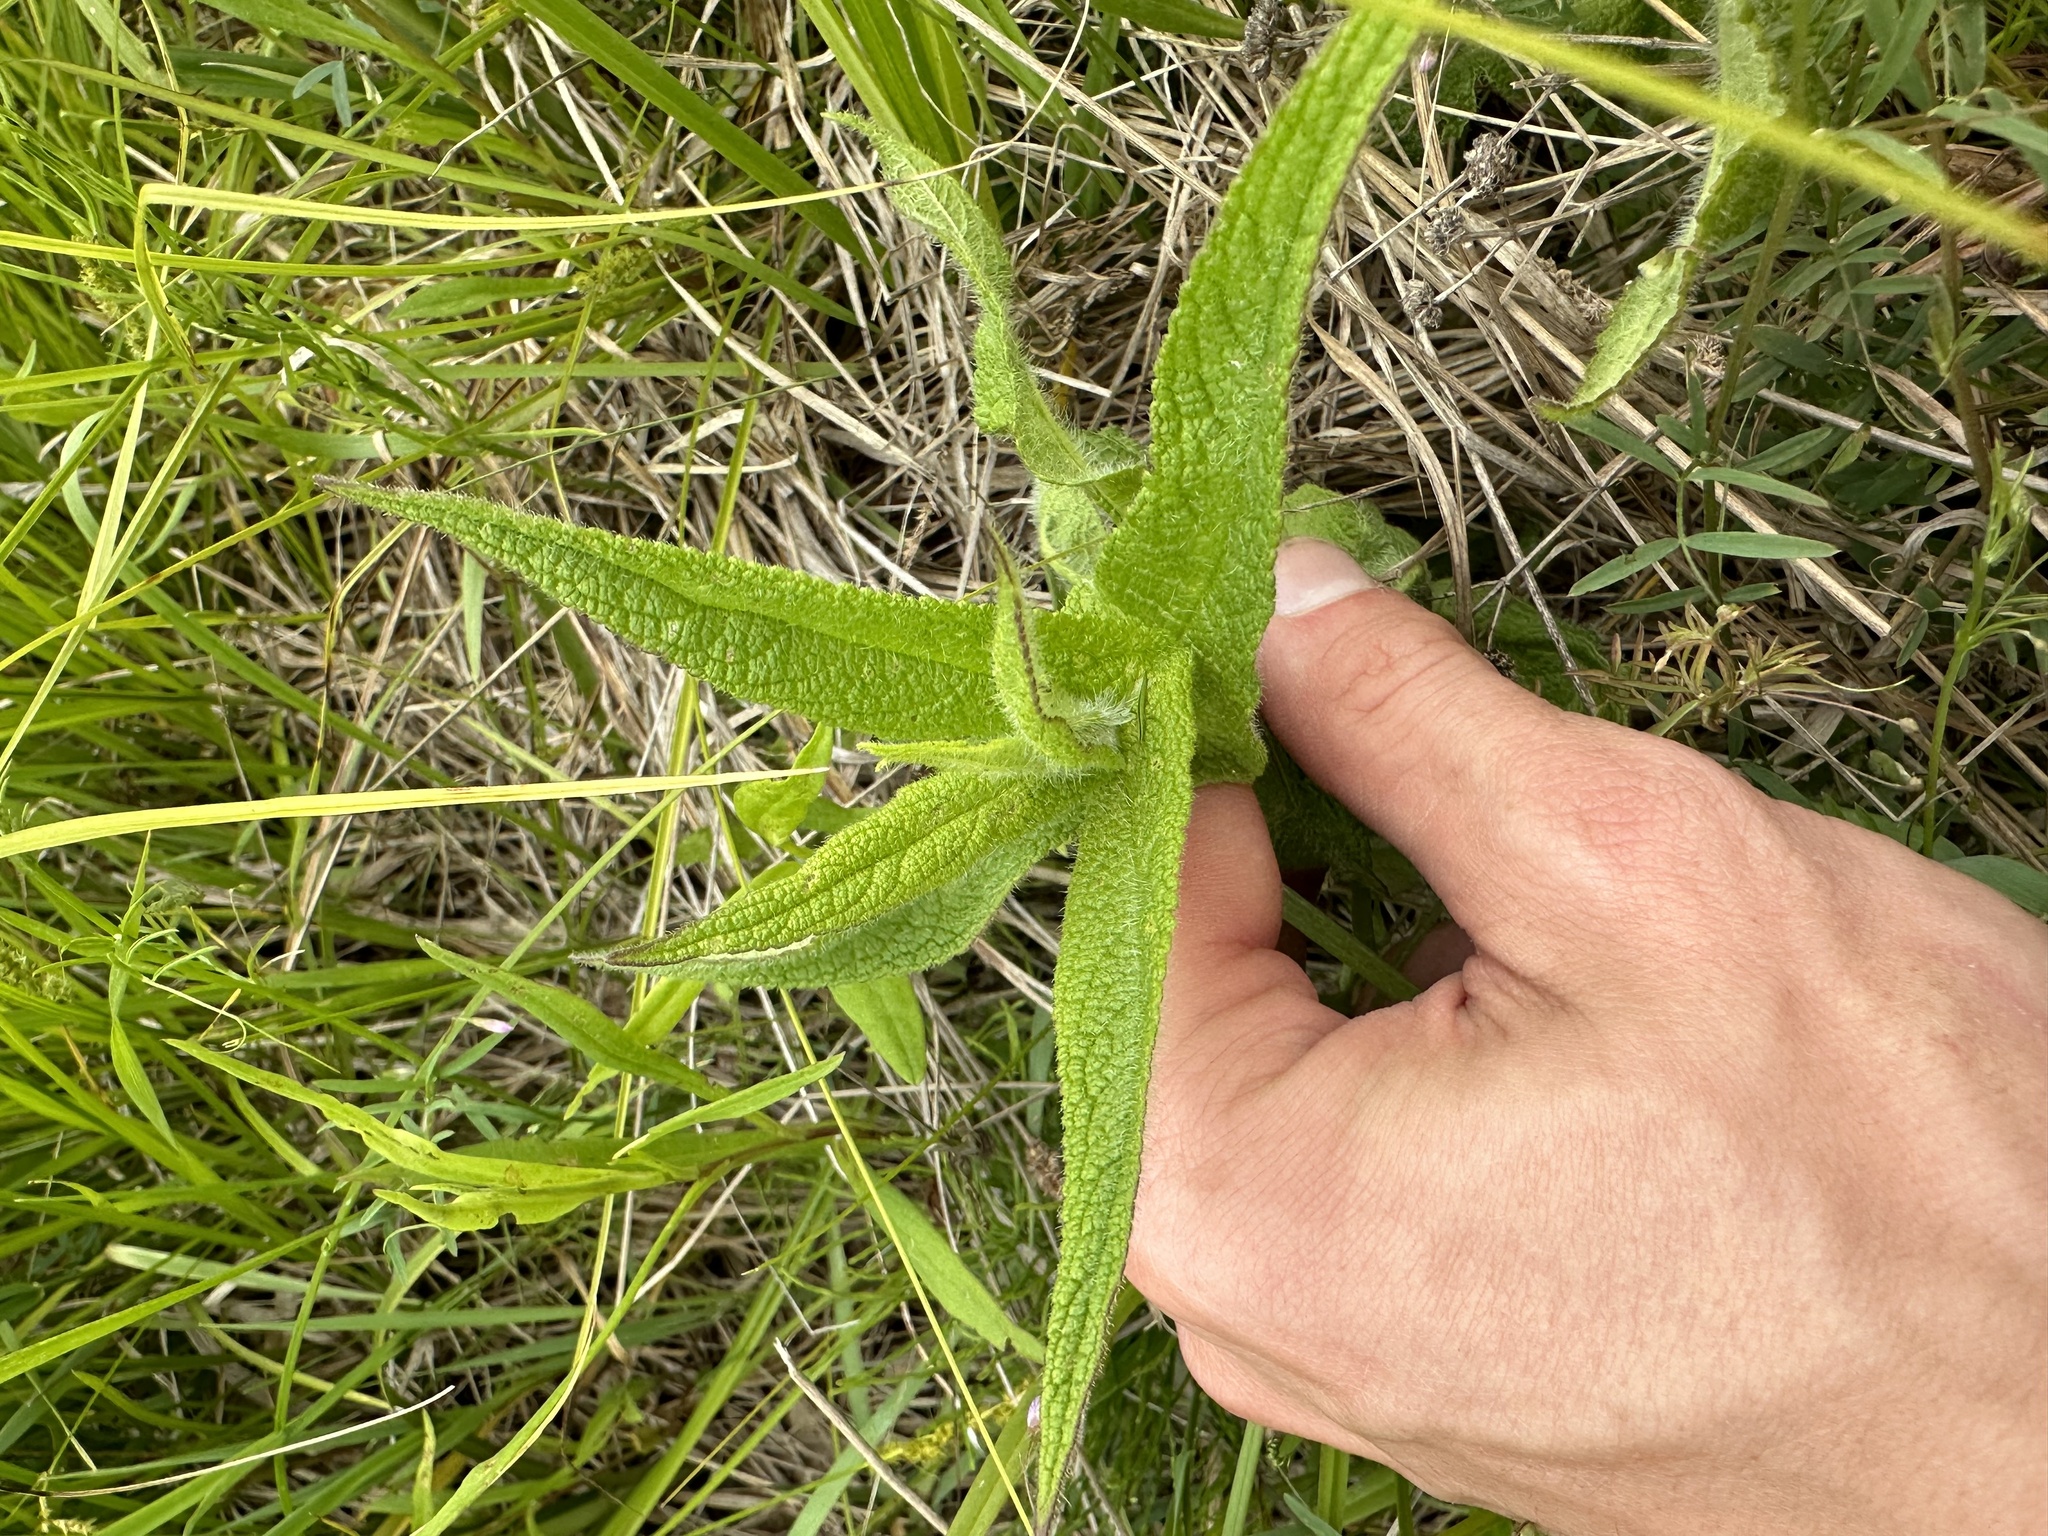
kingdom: Plantae
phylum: Tracheophyta
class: Magnoliopsida
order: Asterales
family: Asteraceae
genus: Eupatorium
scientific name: Eupatorium perfoliatum
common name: Boneset
